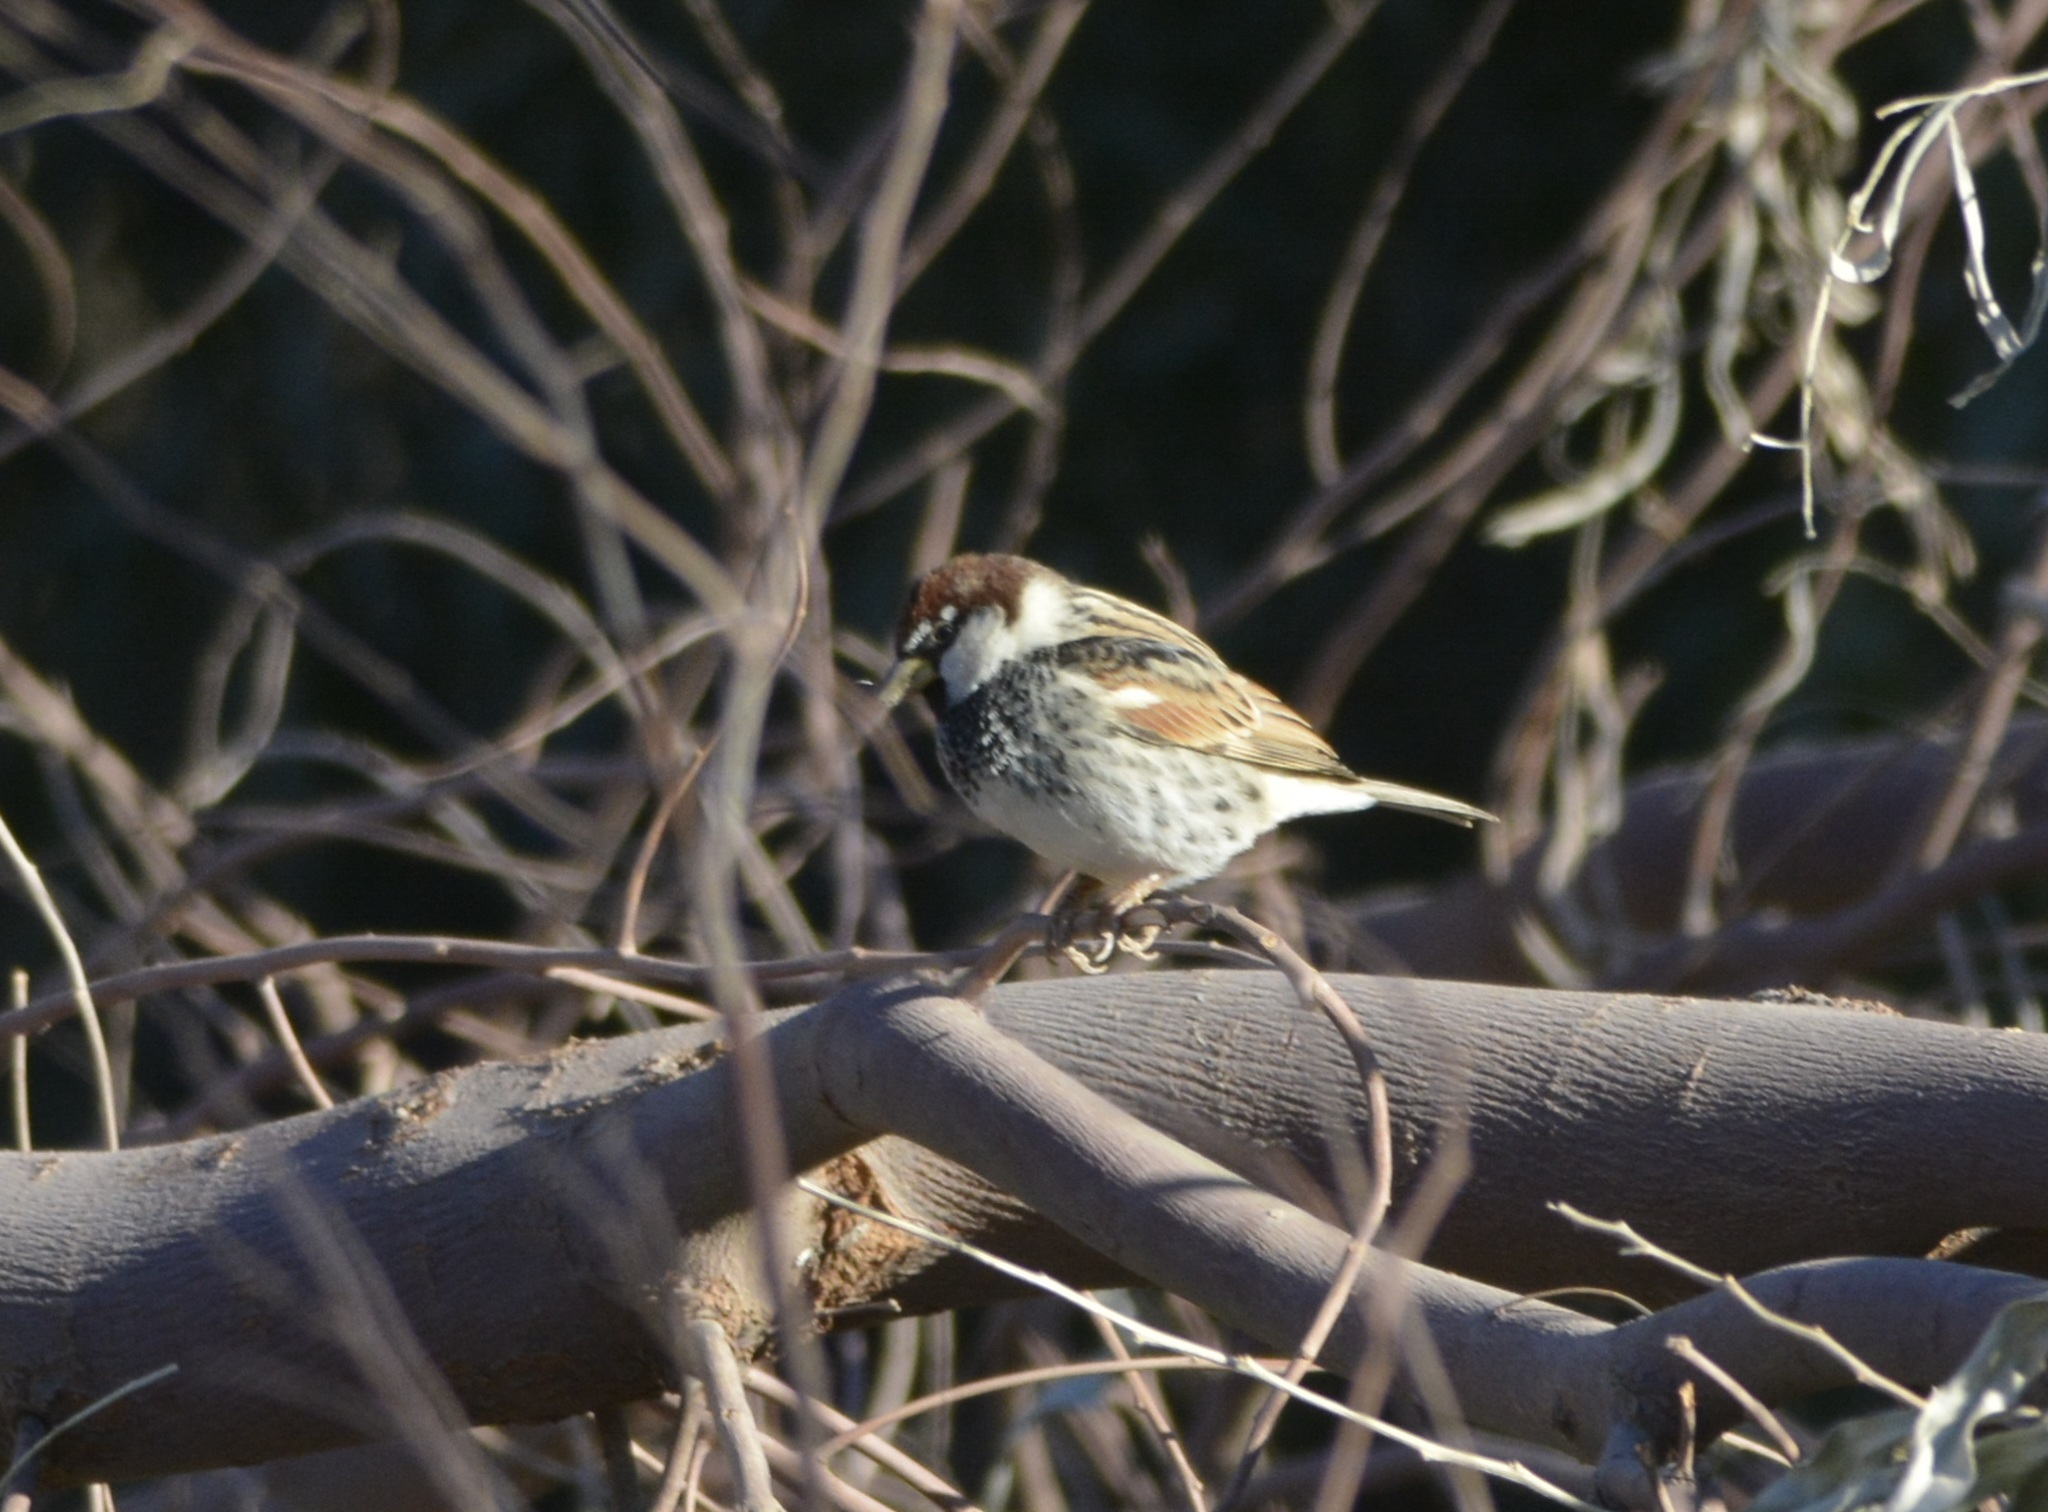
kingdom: Animalia
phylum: Chordata
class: Aves
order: Passeriformes
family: Passeridae
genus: Passer
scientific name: Passer hispaniolensis
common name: Spanish sparrow
